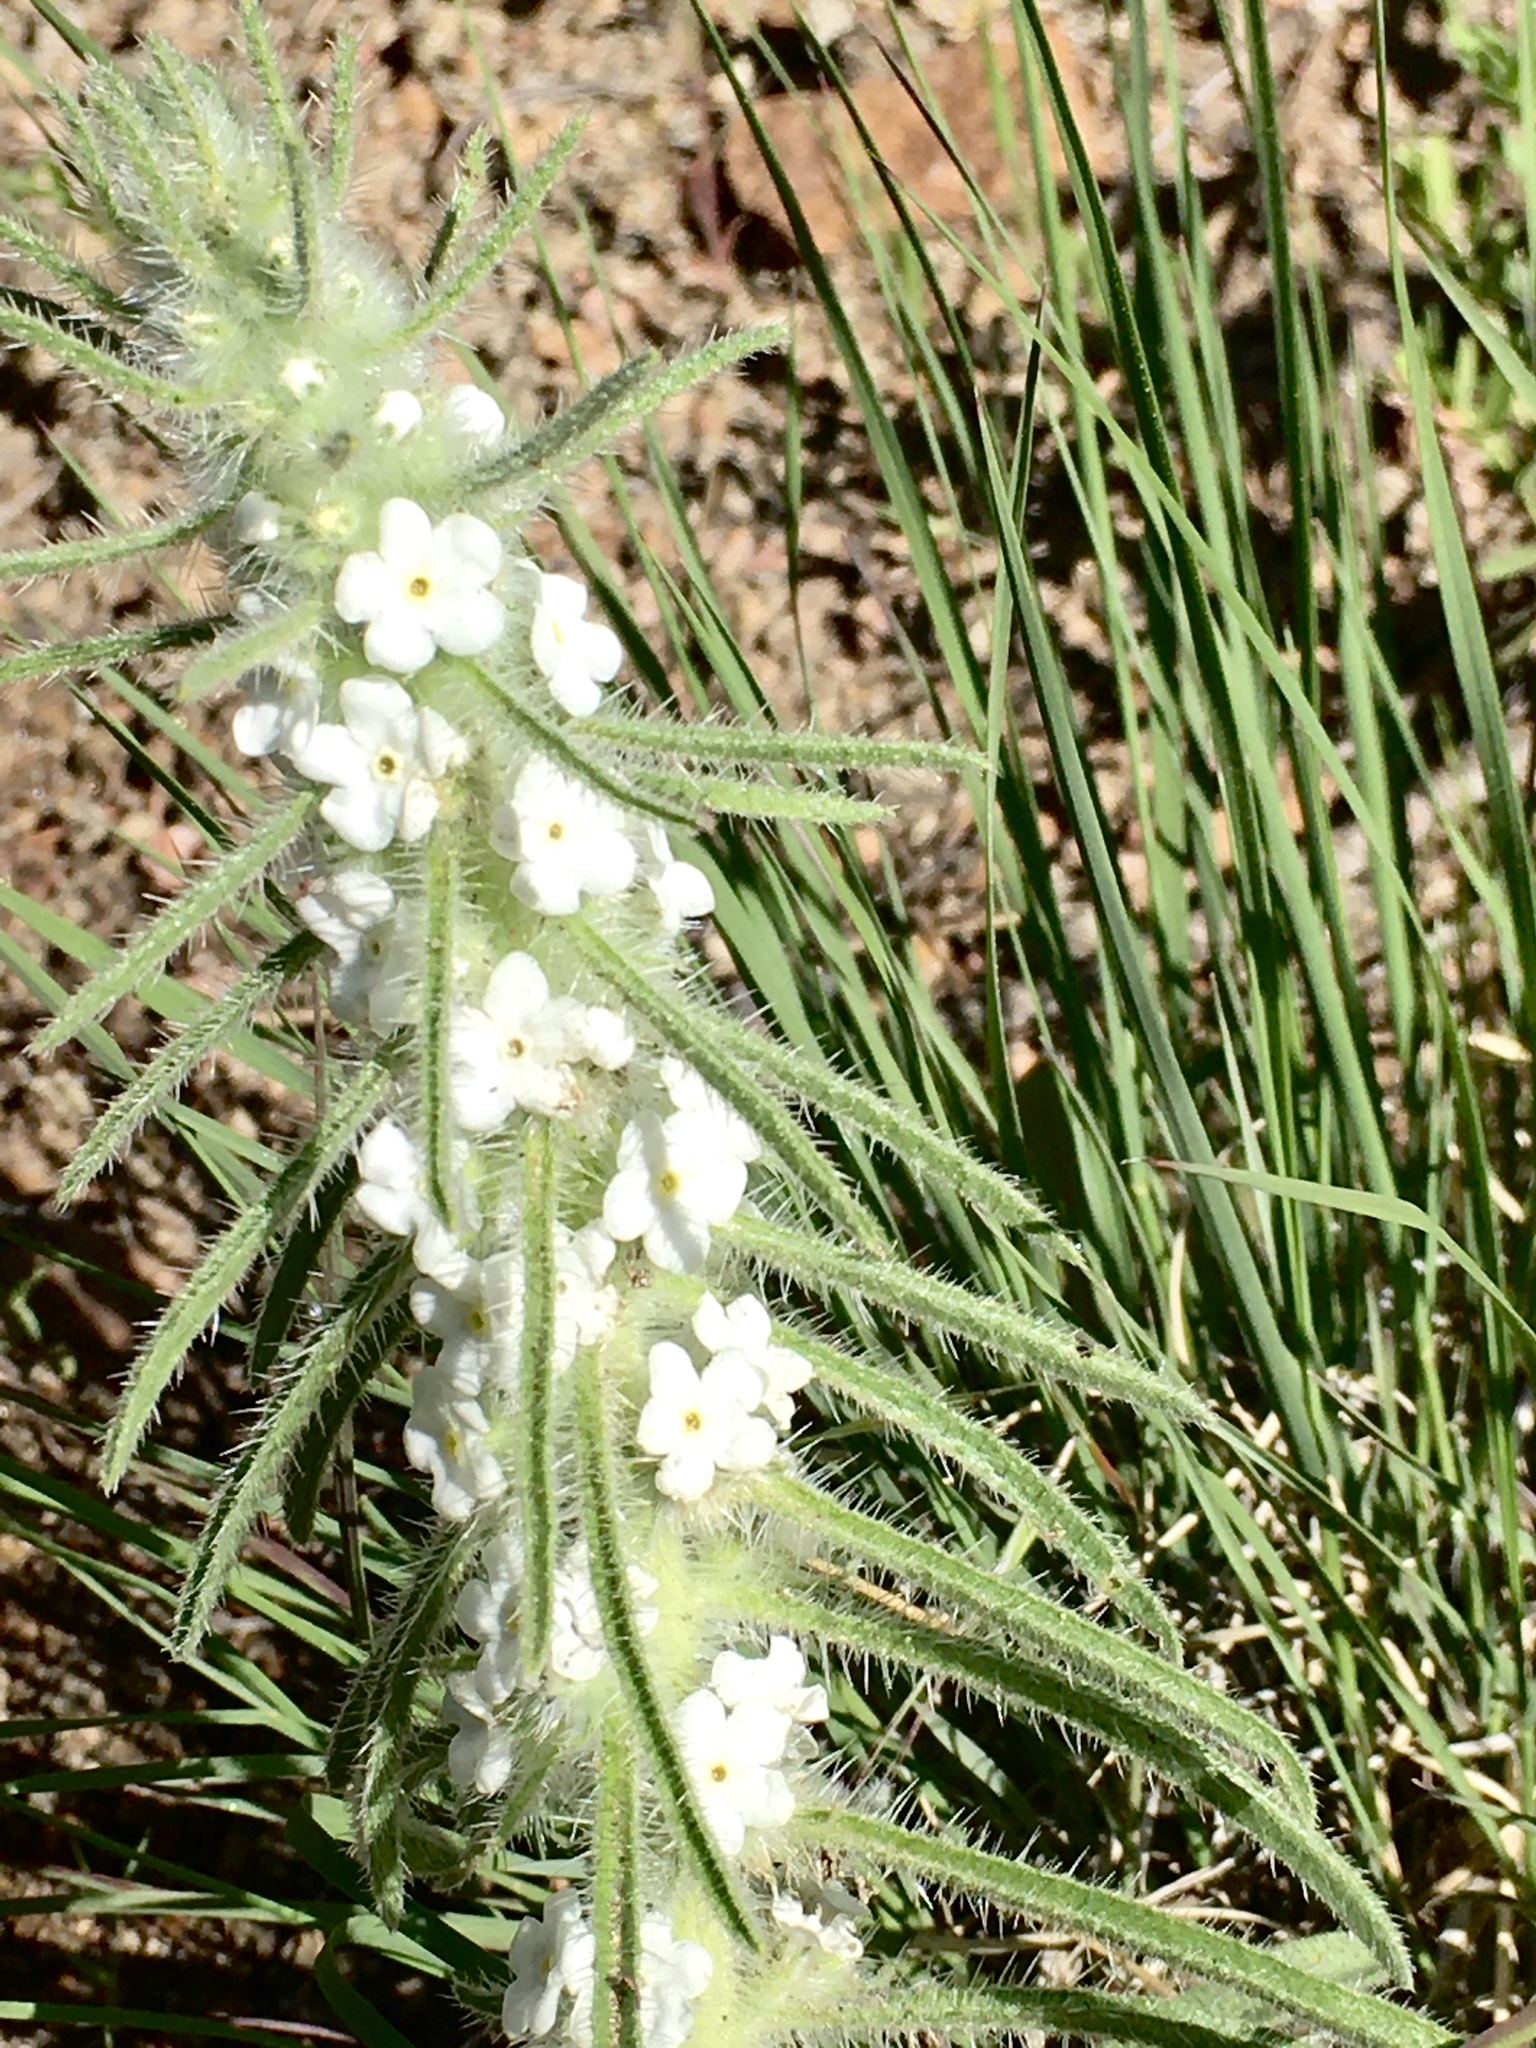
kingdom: Plantae
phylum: Tracheophyta
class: Magnoliopsida
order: Boraginales
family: Boraginaceae
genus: Oreocarya
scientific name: Oreocarya virgata
